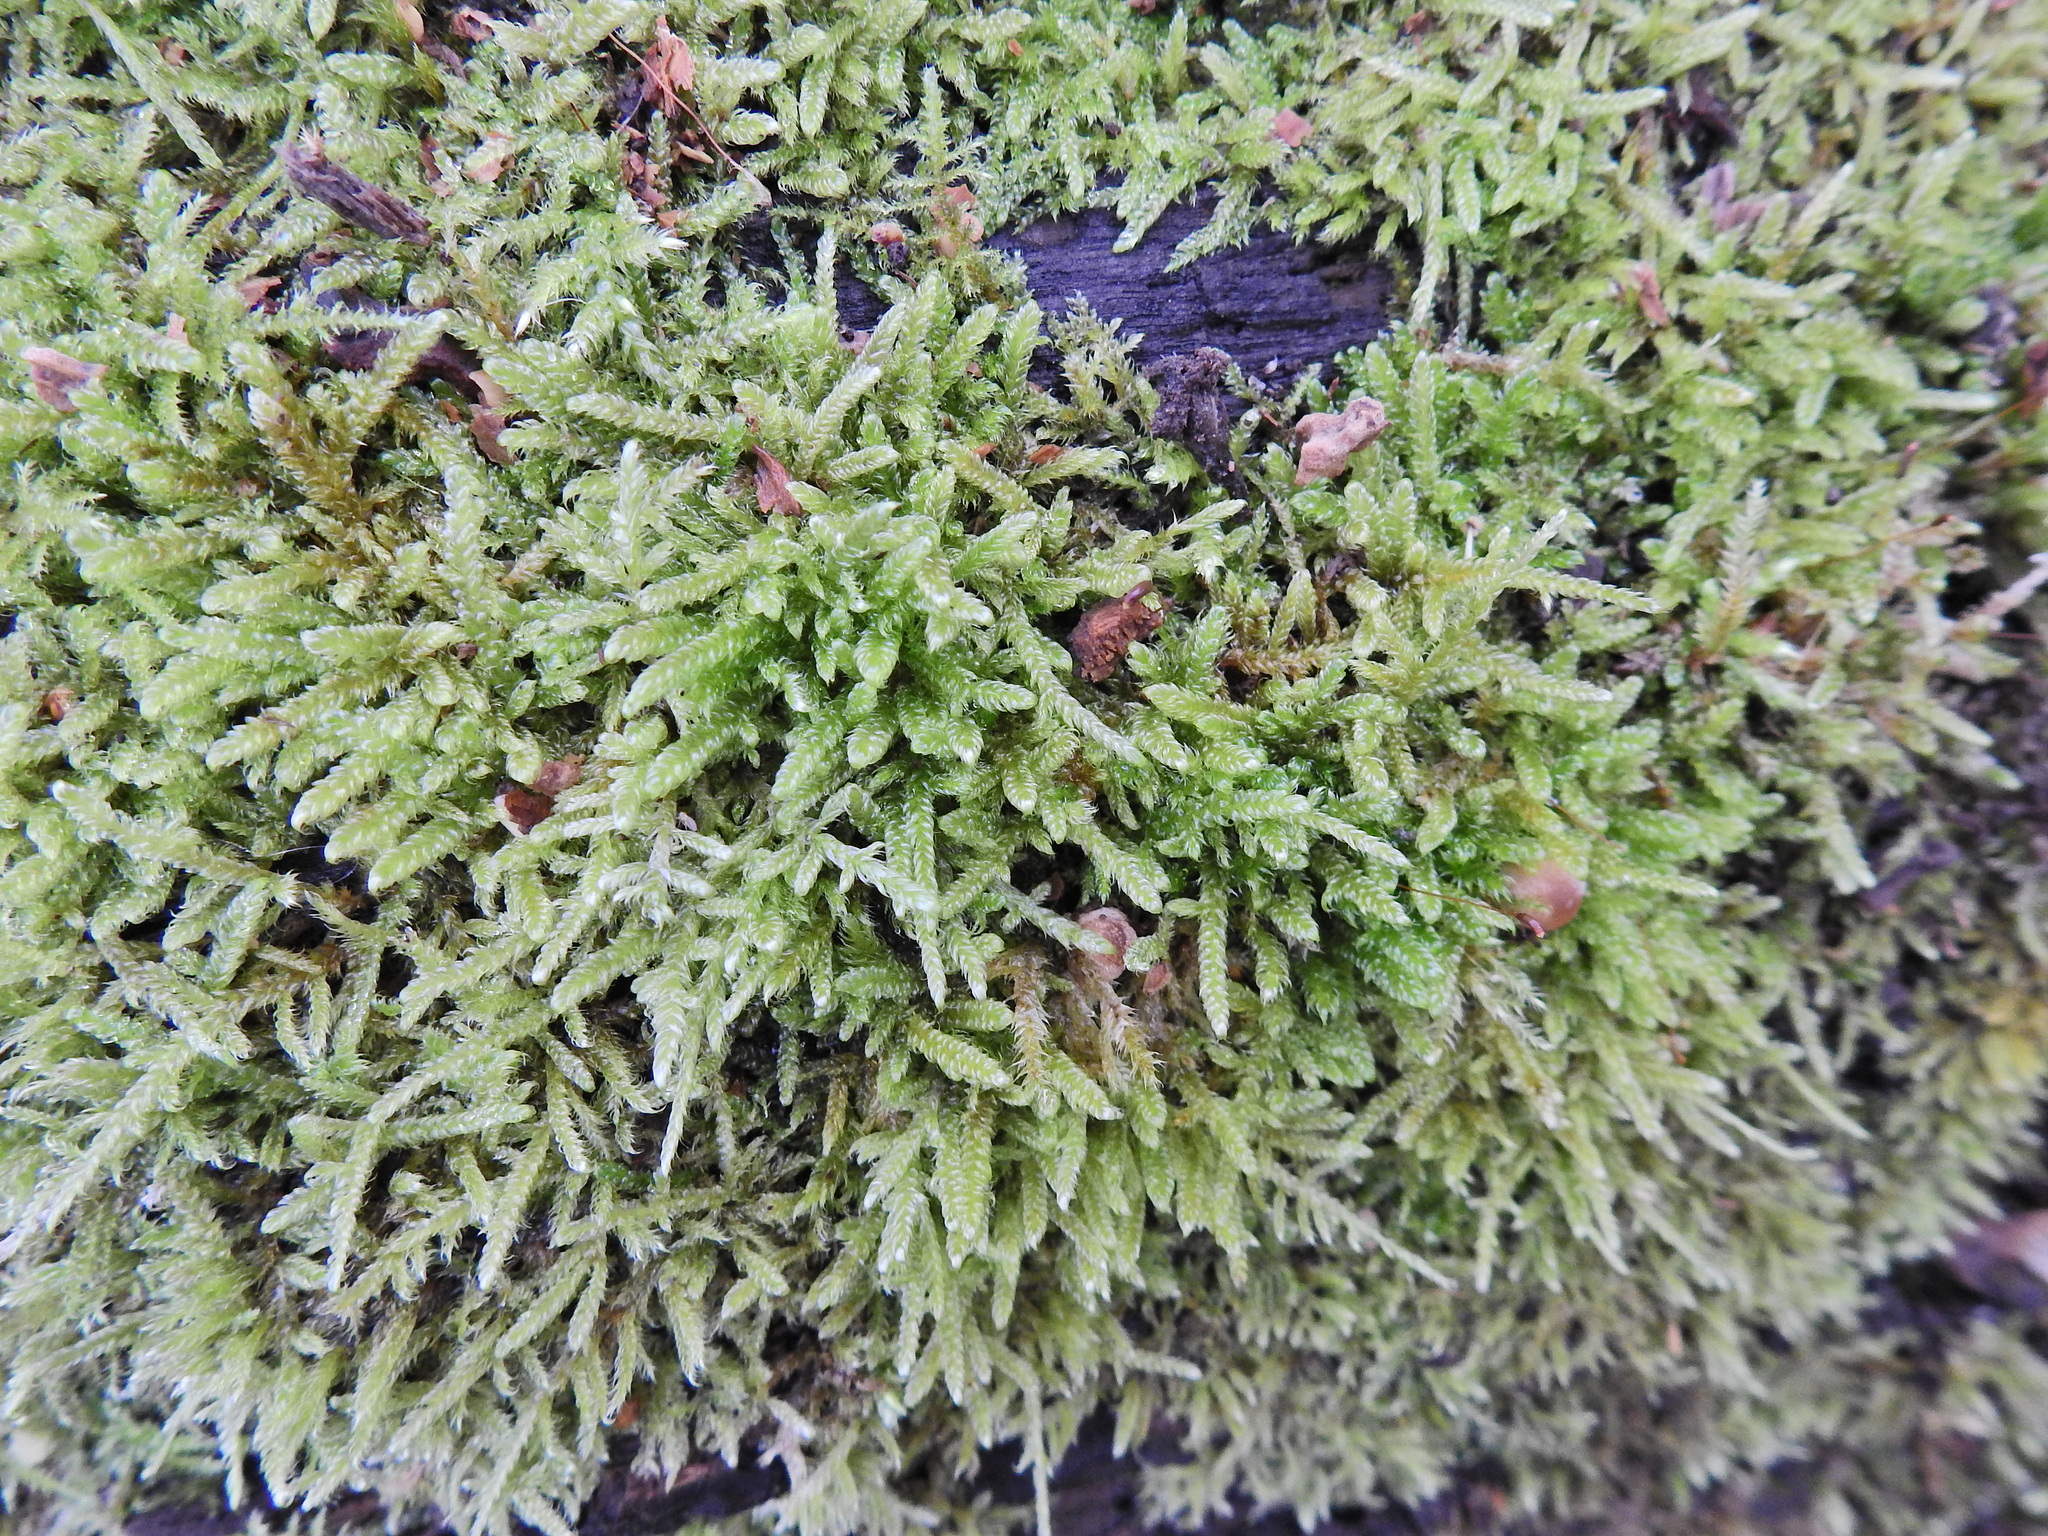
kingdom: Plantae
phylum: Bryophyta
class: Bryopsida
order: Hypnales
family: Hypnaceae
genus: Hypnum
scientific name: Hypnum cupressiforme
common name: Cypress-leaved plait-moss
